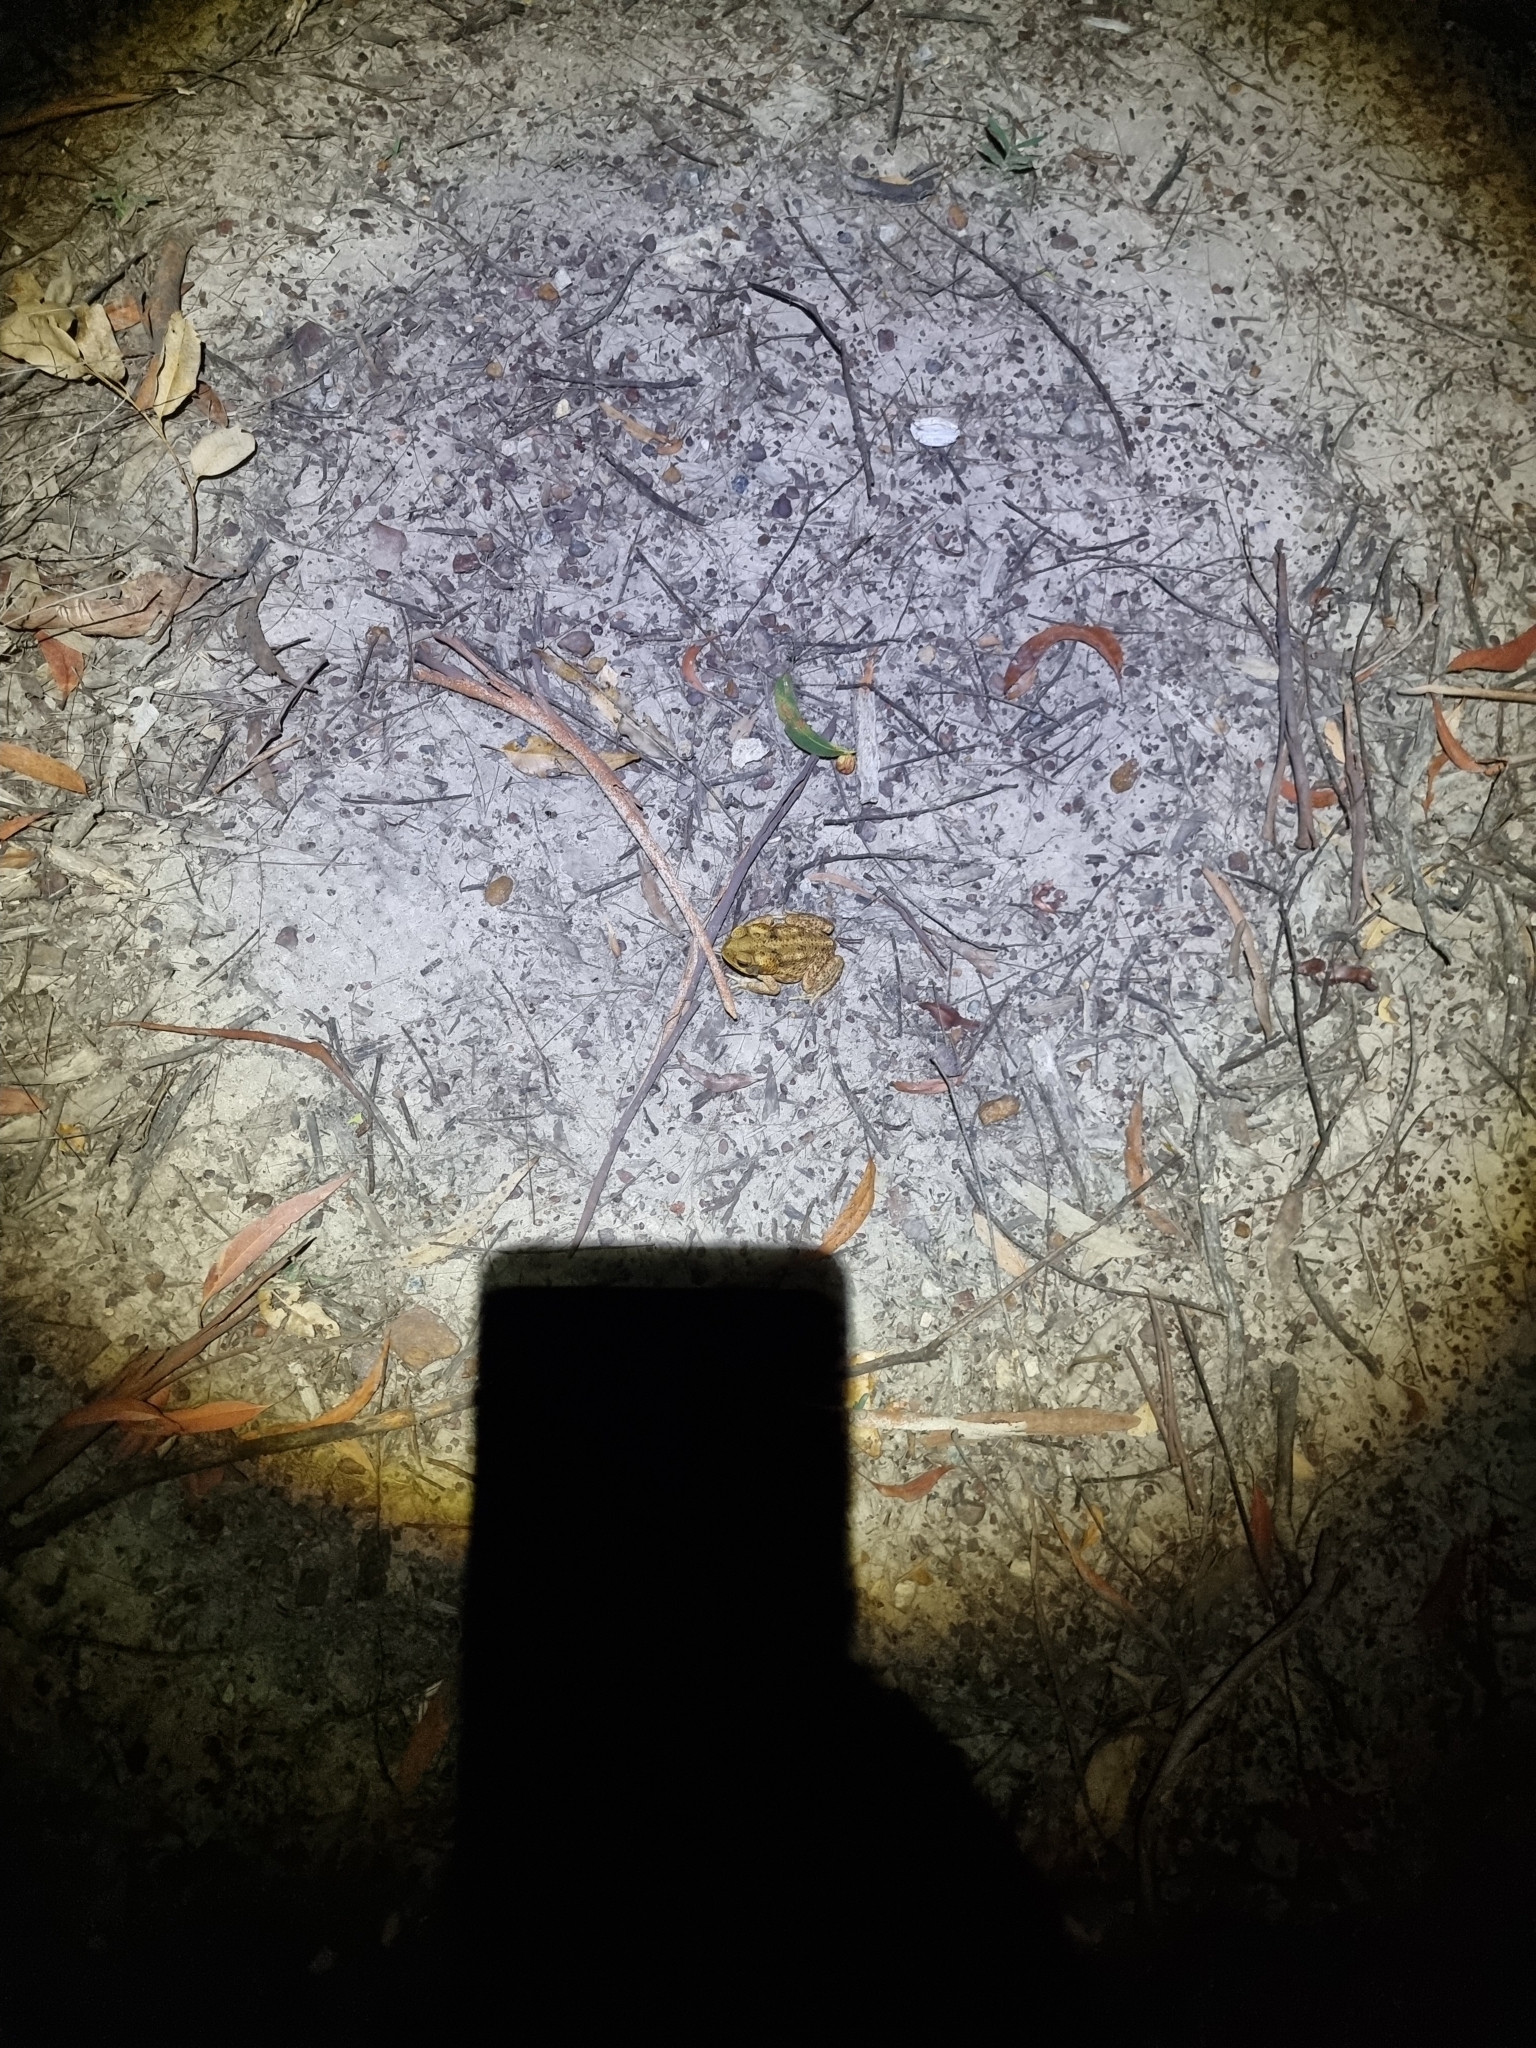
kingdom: Animalia
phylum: Chordata
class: Amphibia
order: Anura
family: Bufonidae
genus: Rhinella
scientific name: Rhinella marina
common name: Cane toad
